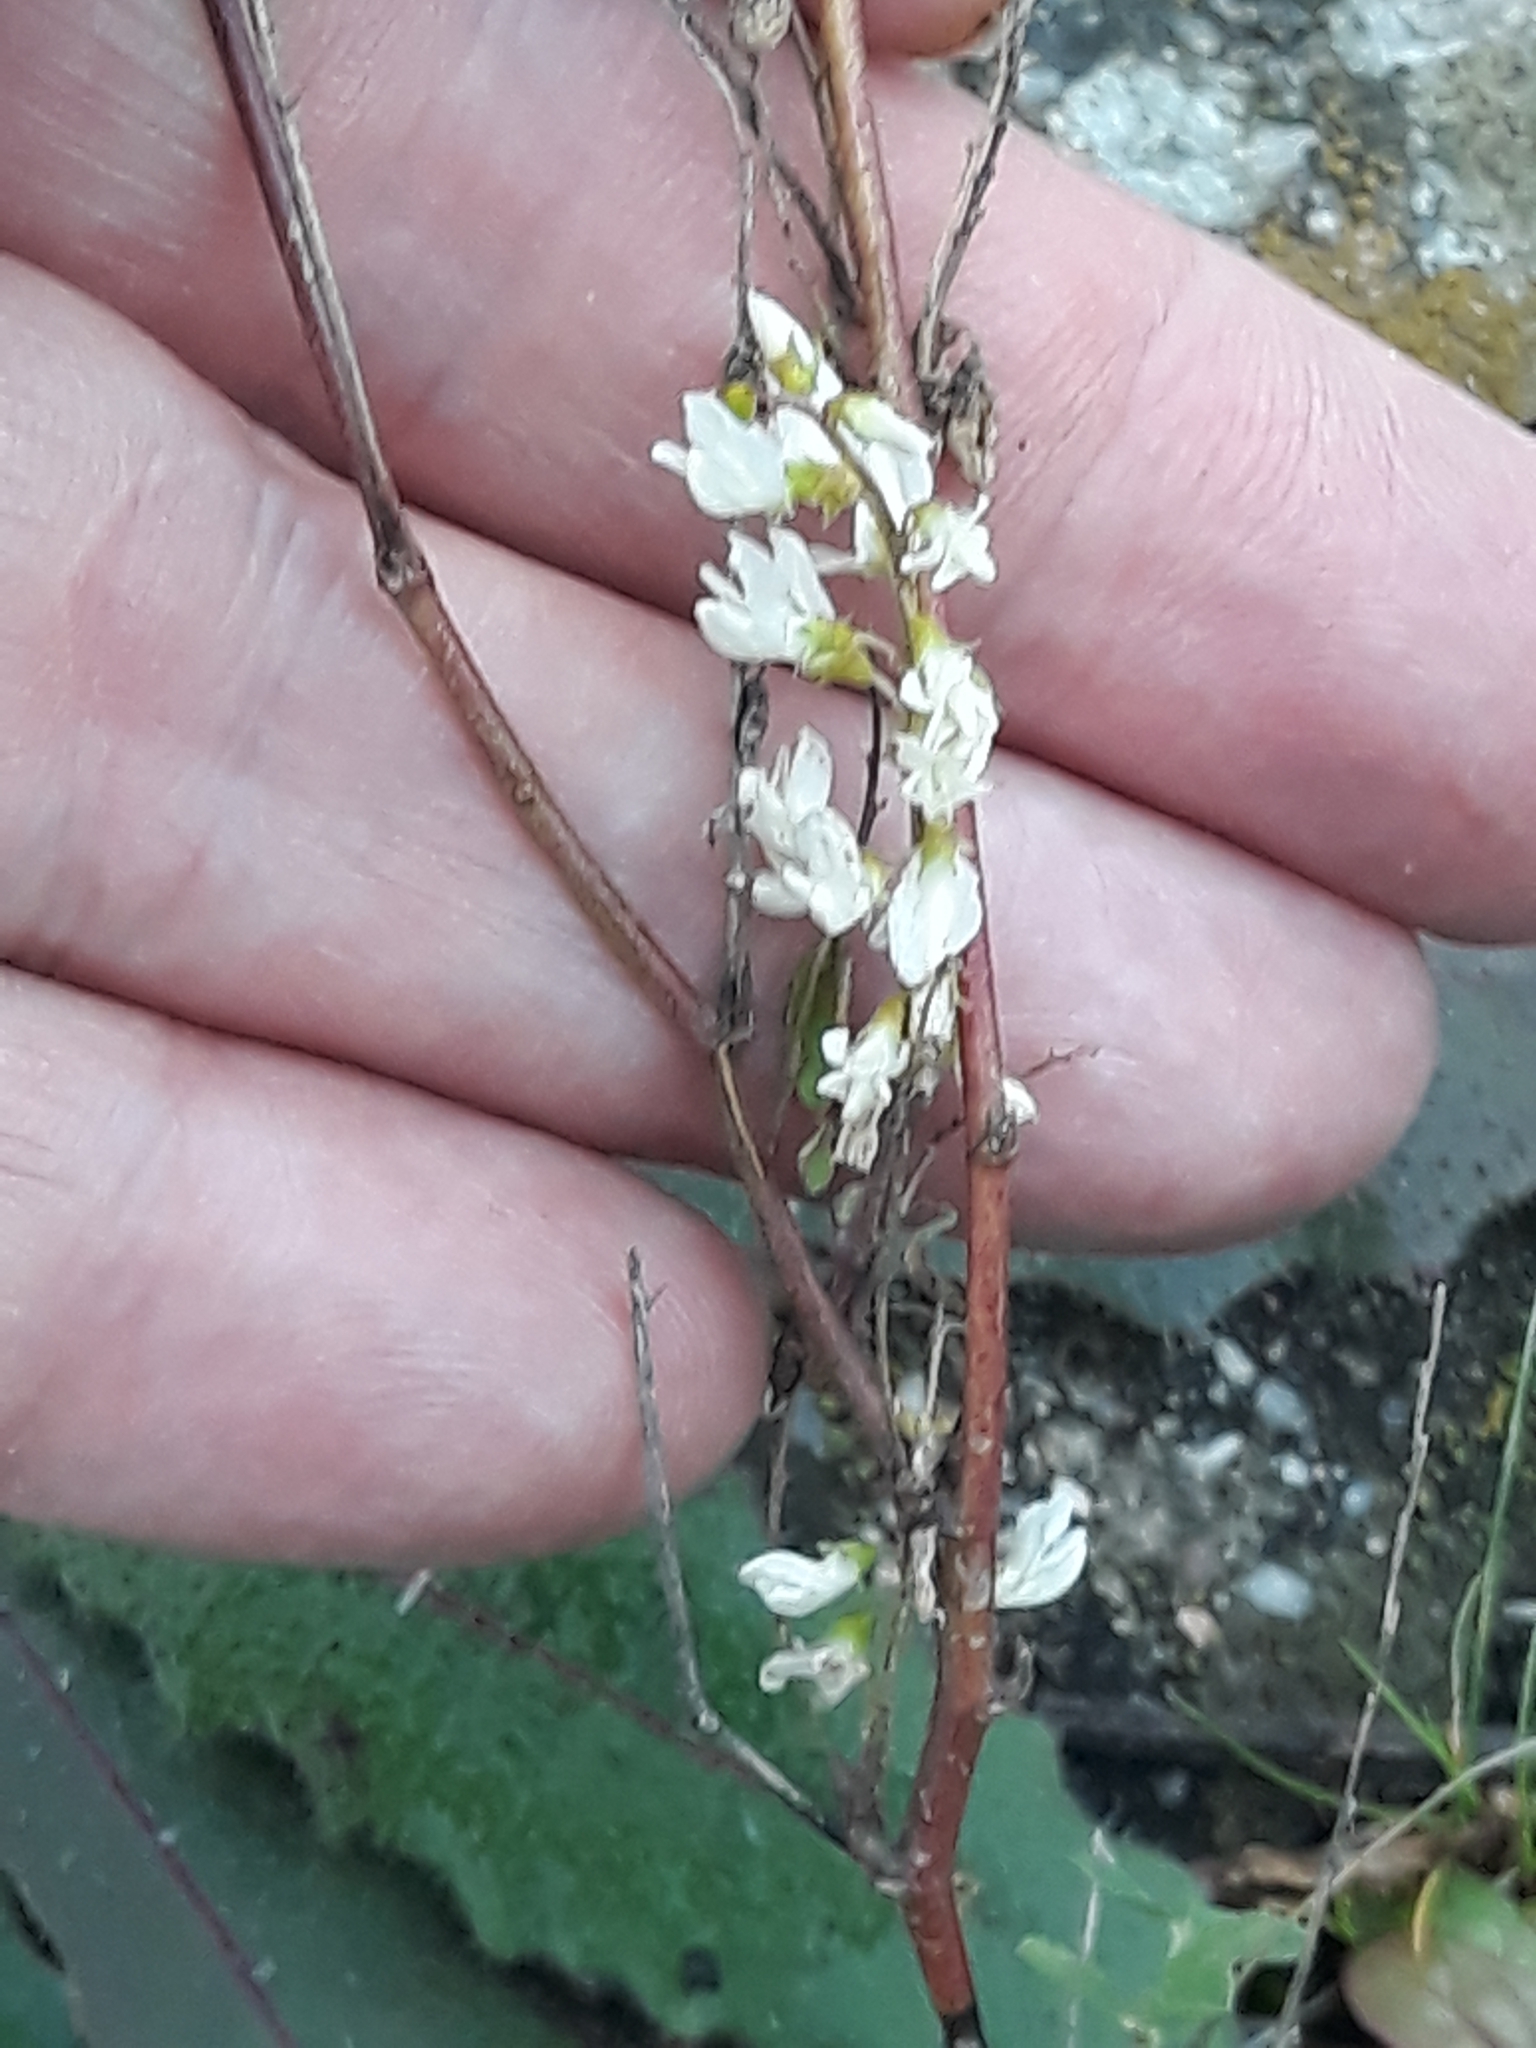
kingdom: Plantae
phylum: Tracheophyta
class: Magnoliopsida
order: Fabales
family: Fabaceae
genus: Melilotus
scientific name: Melilotus albus
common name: White melilot
